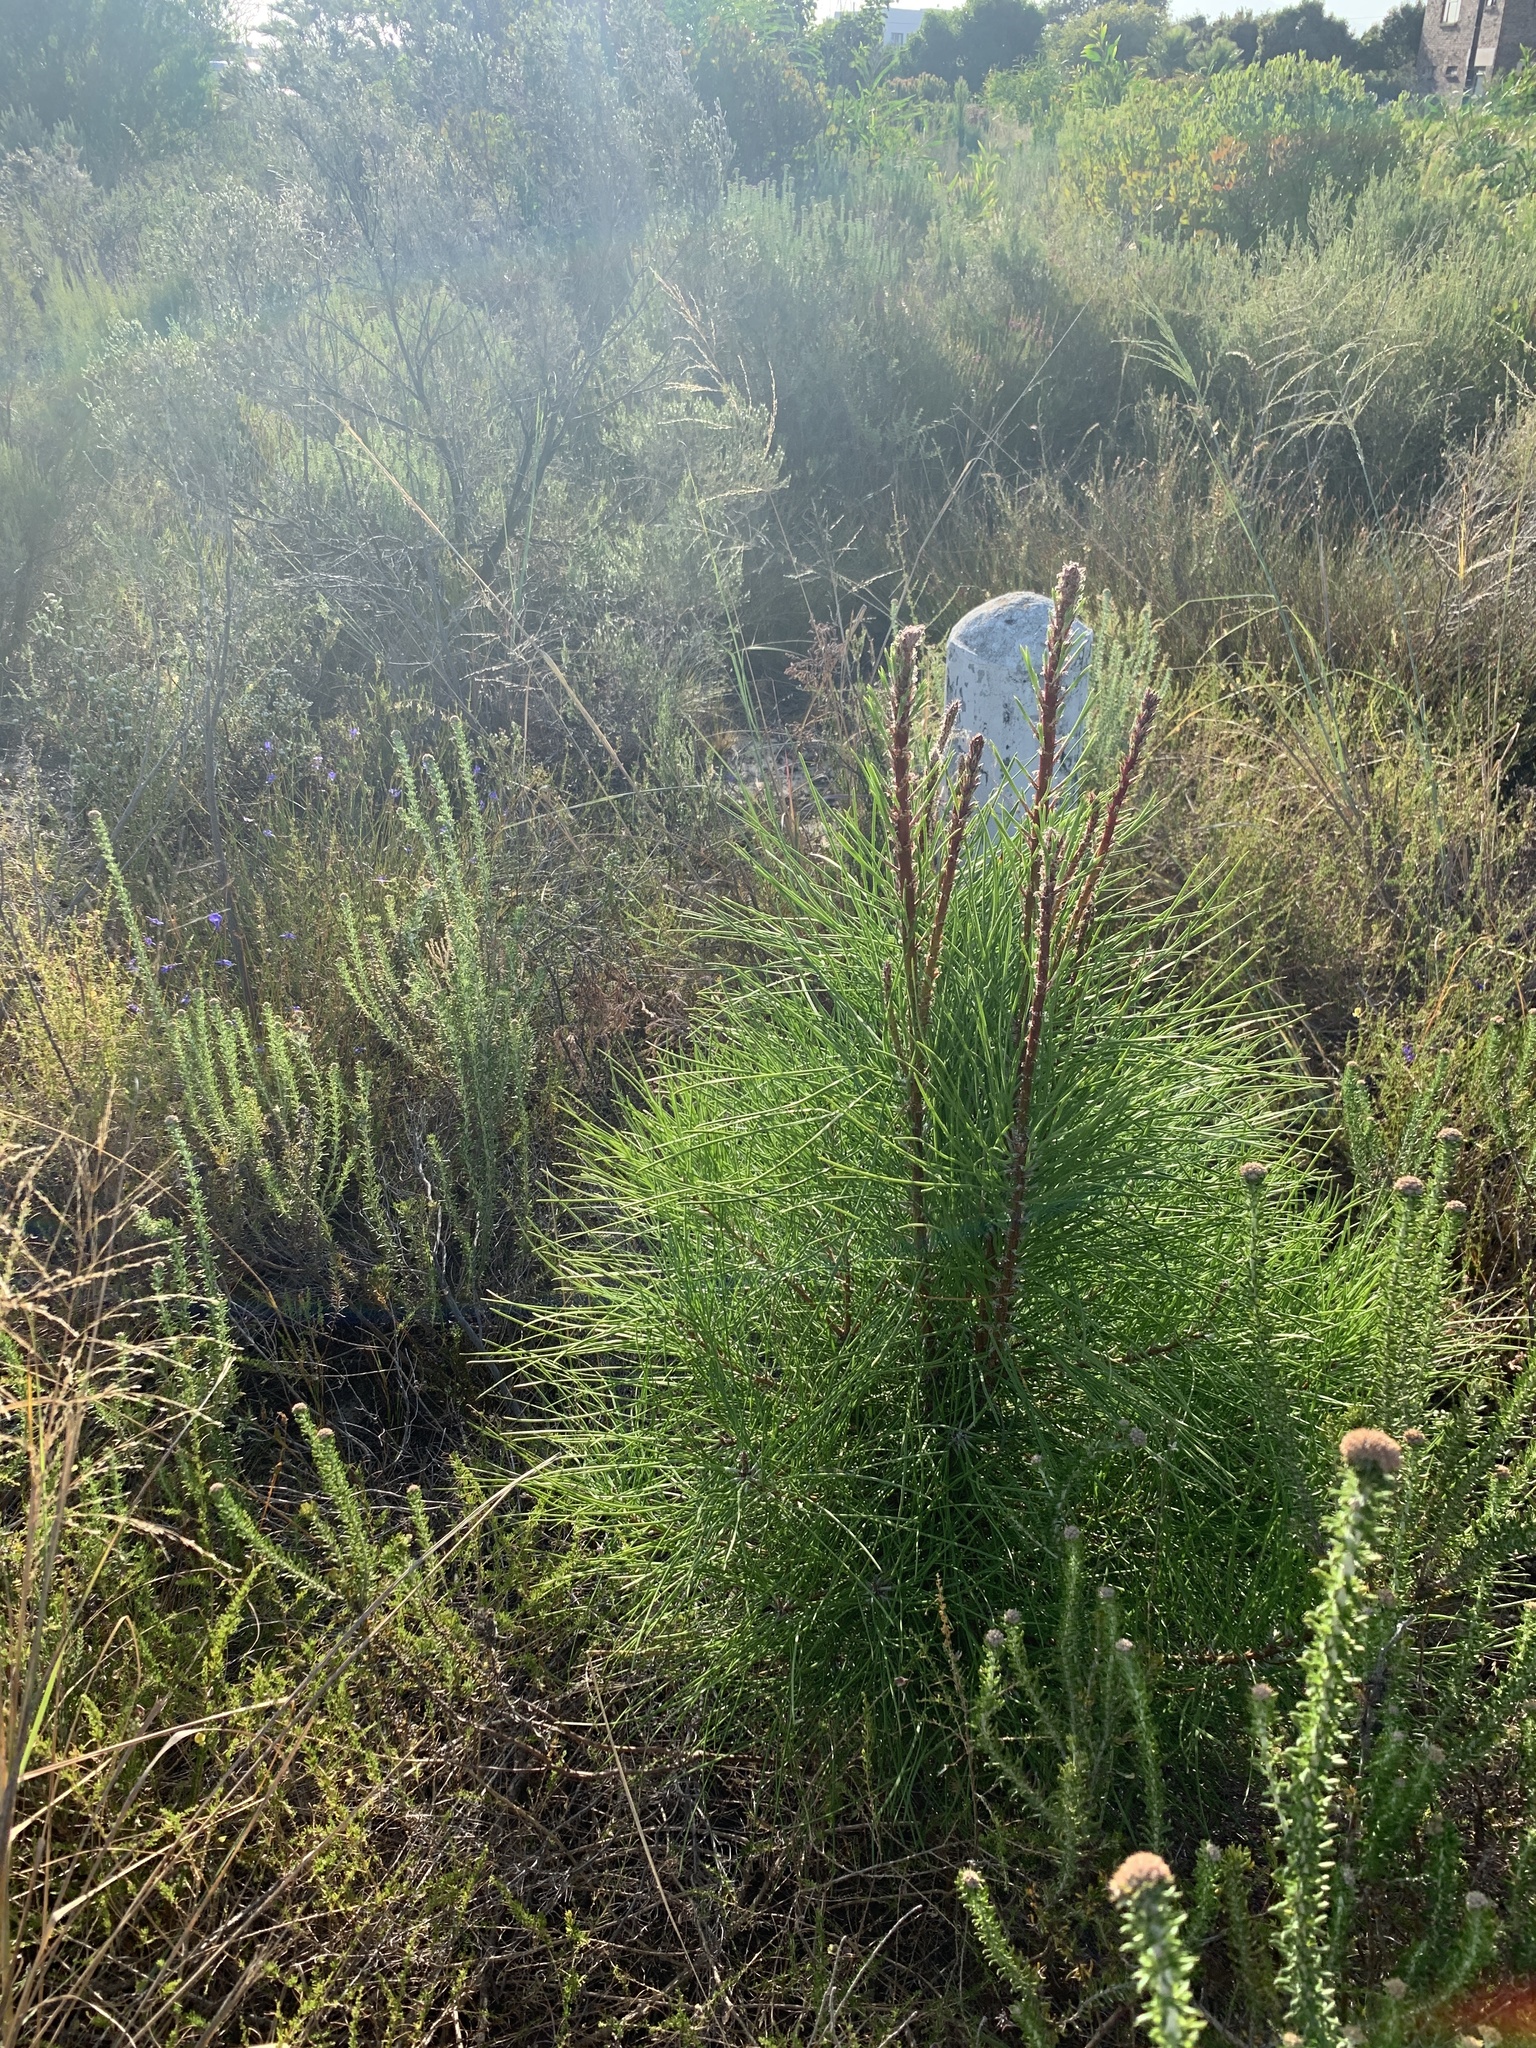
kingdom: Plantae
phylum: Tracheophyta
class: Pinopsida
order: Pinales
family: Pinaceae
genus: Pinus
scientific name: Pinus pinaster
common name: Maritime pine
